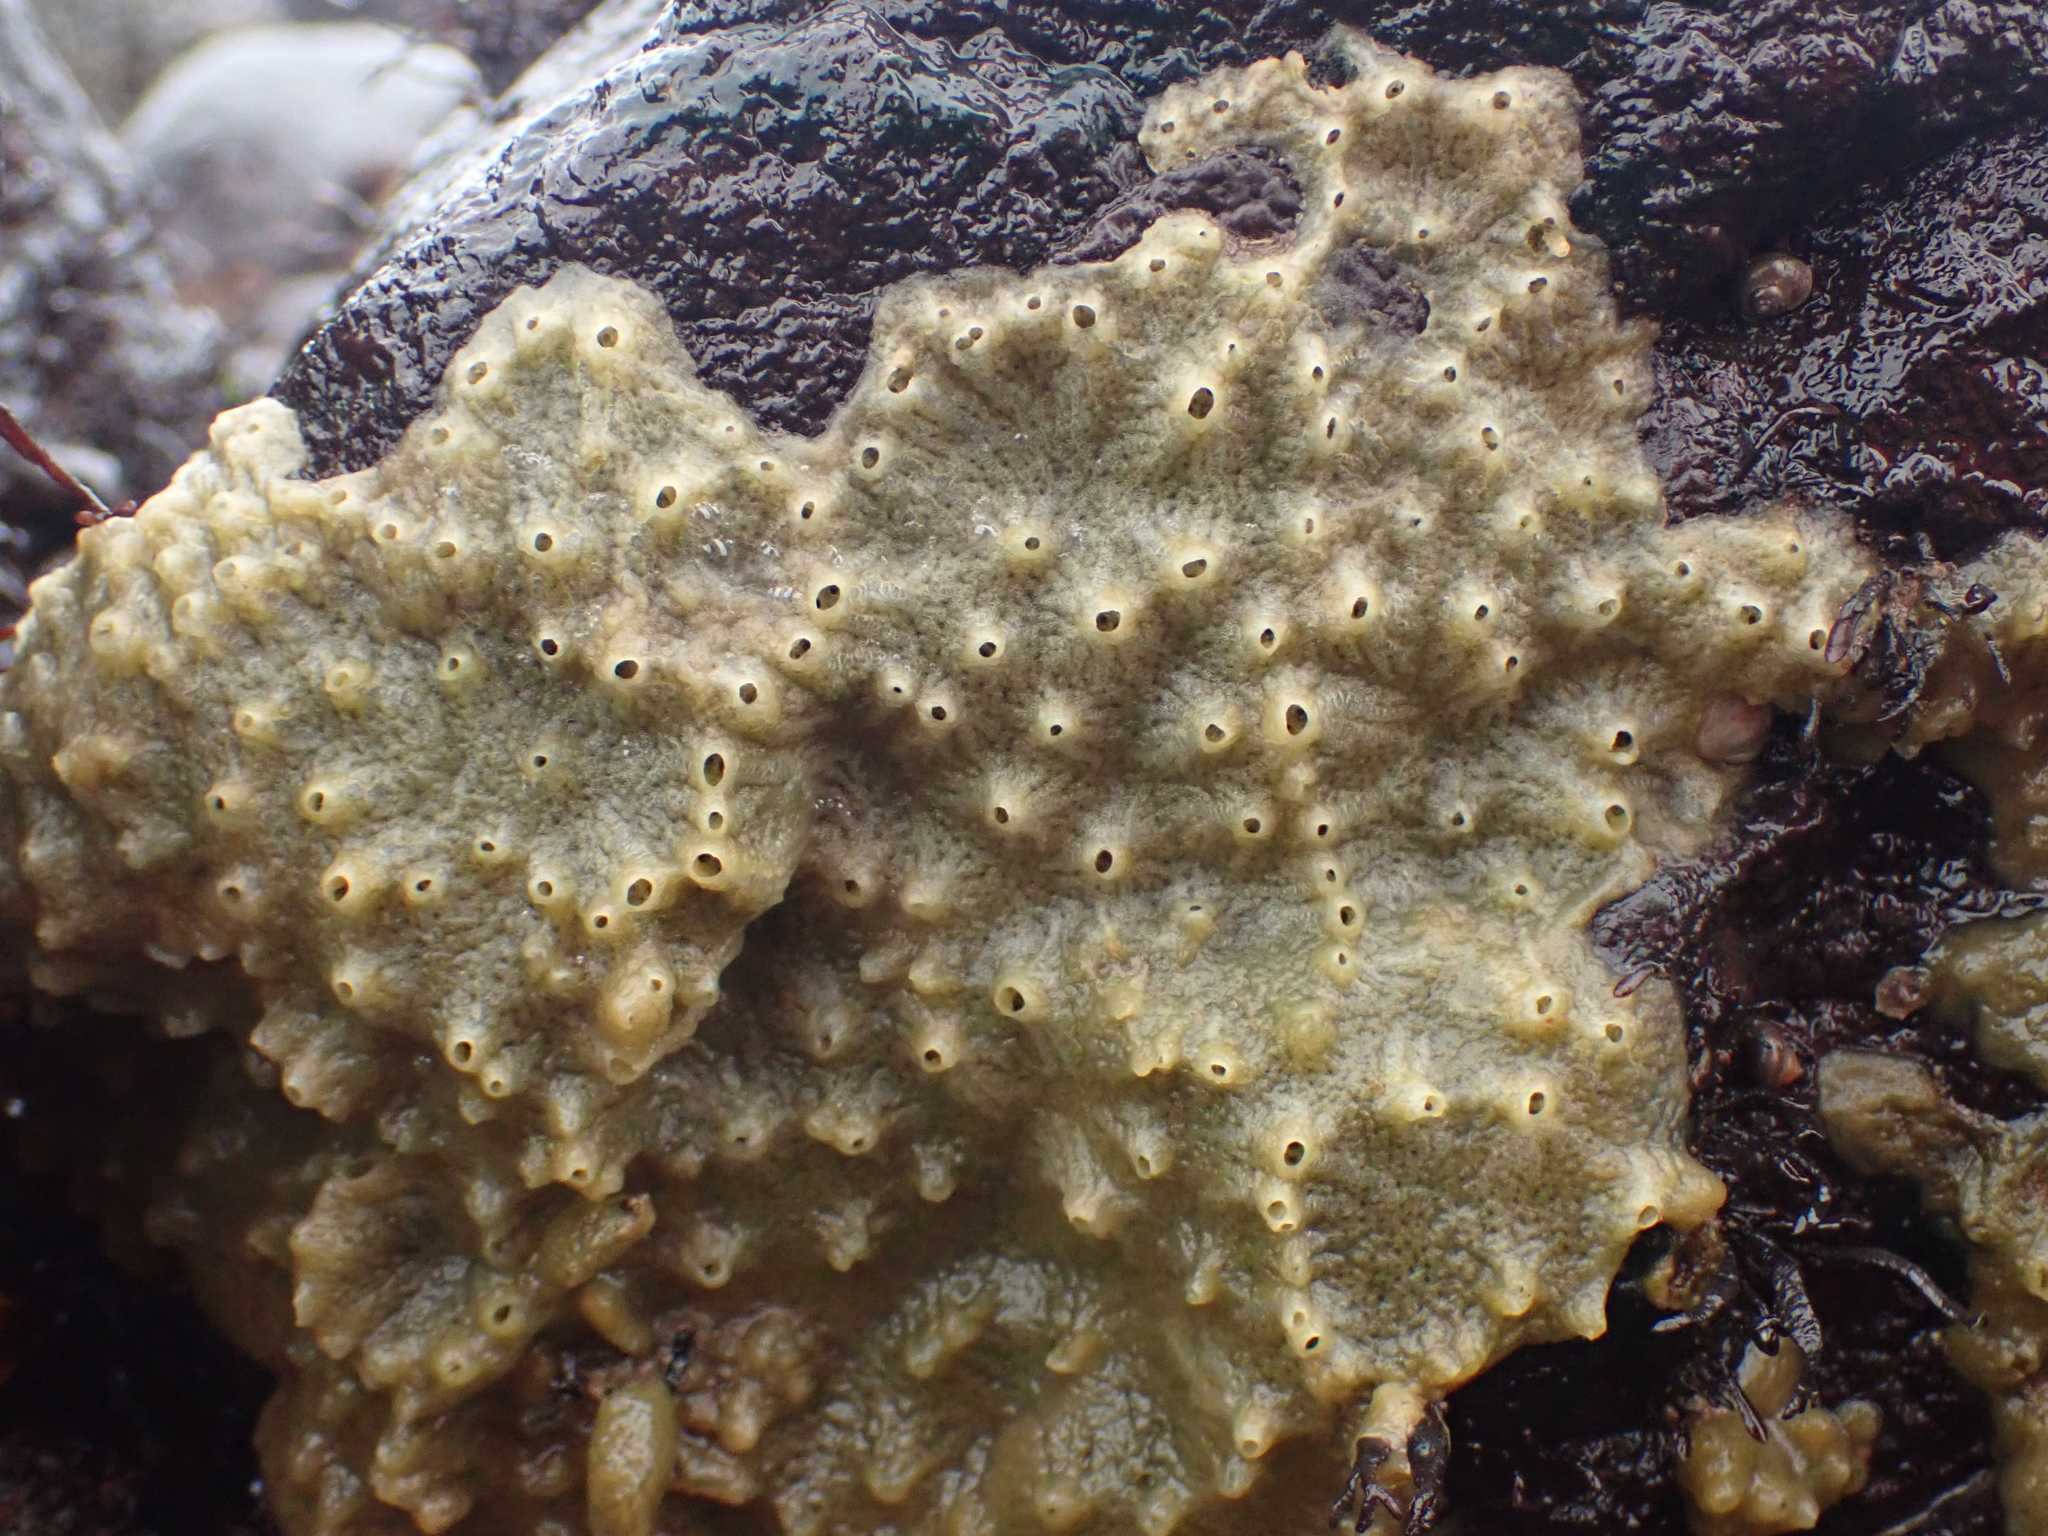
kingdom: Animalia
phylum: Porifera
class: Demospongiae
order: Suberitida
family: Halichondriidae
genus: Halichondria
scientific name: Halichondria panicea
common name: Breadcrumb sponge
